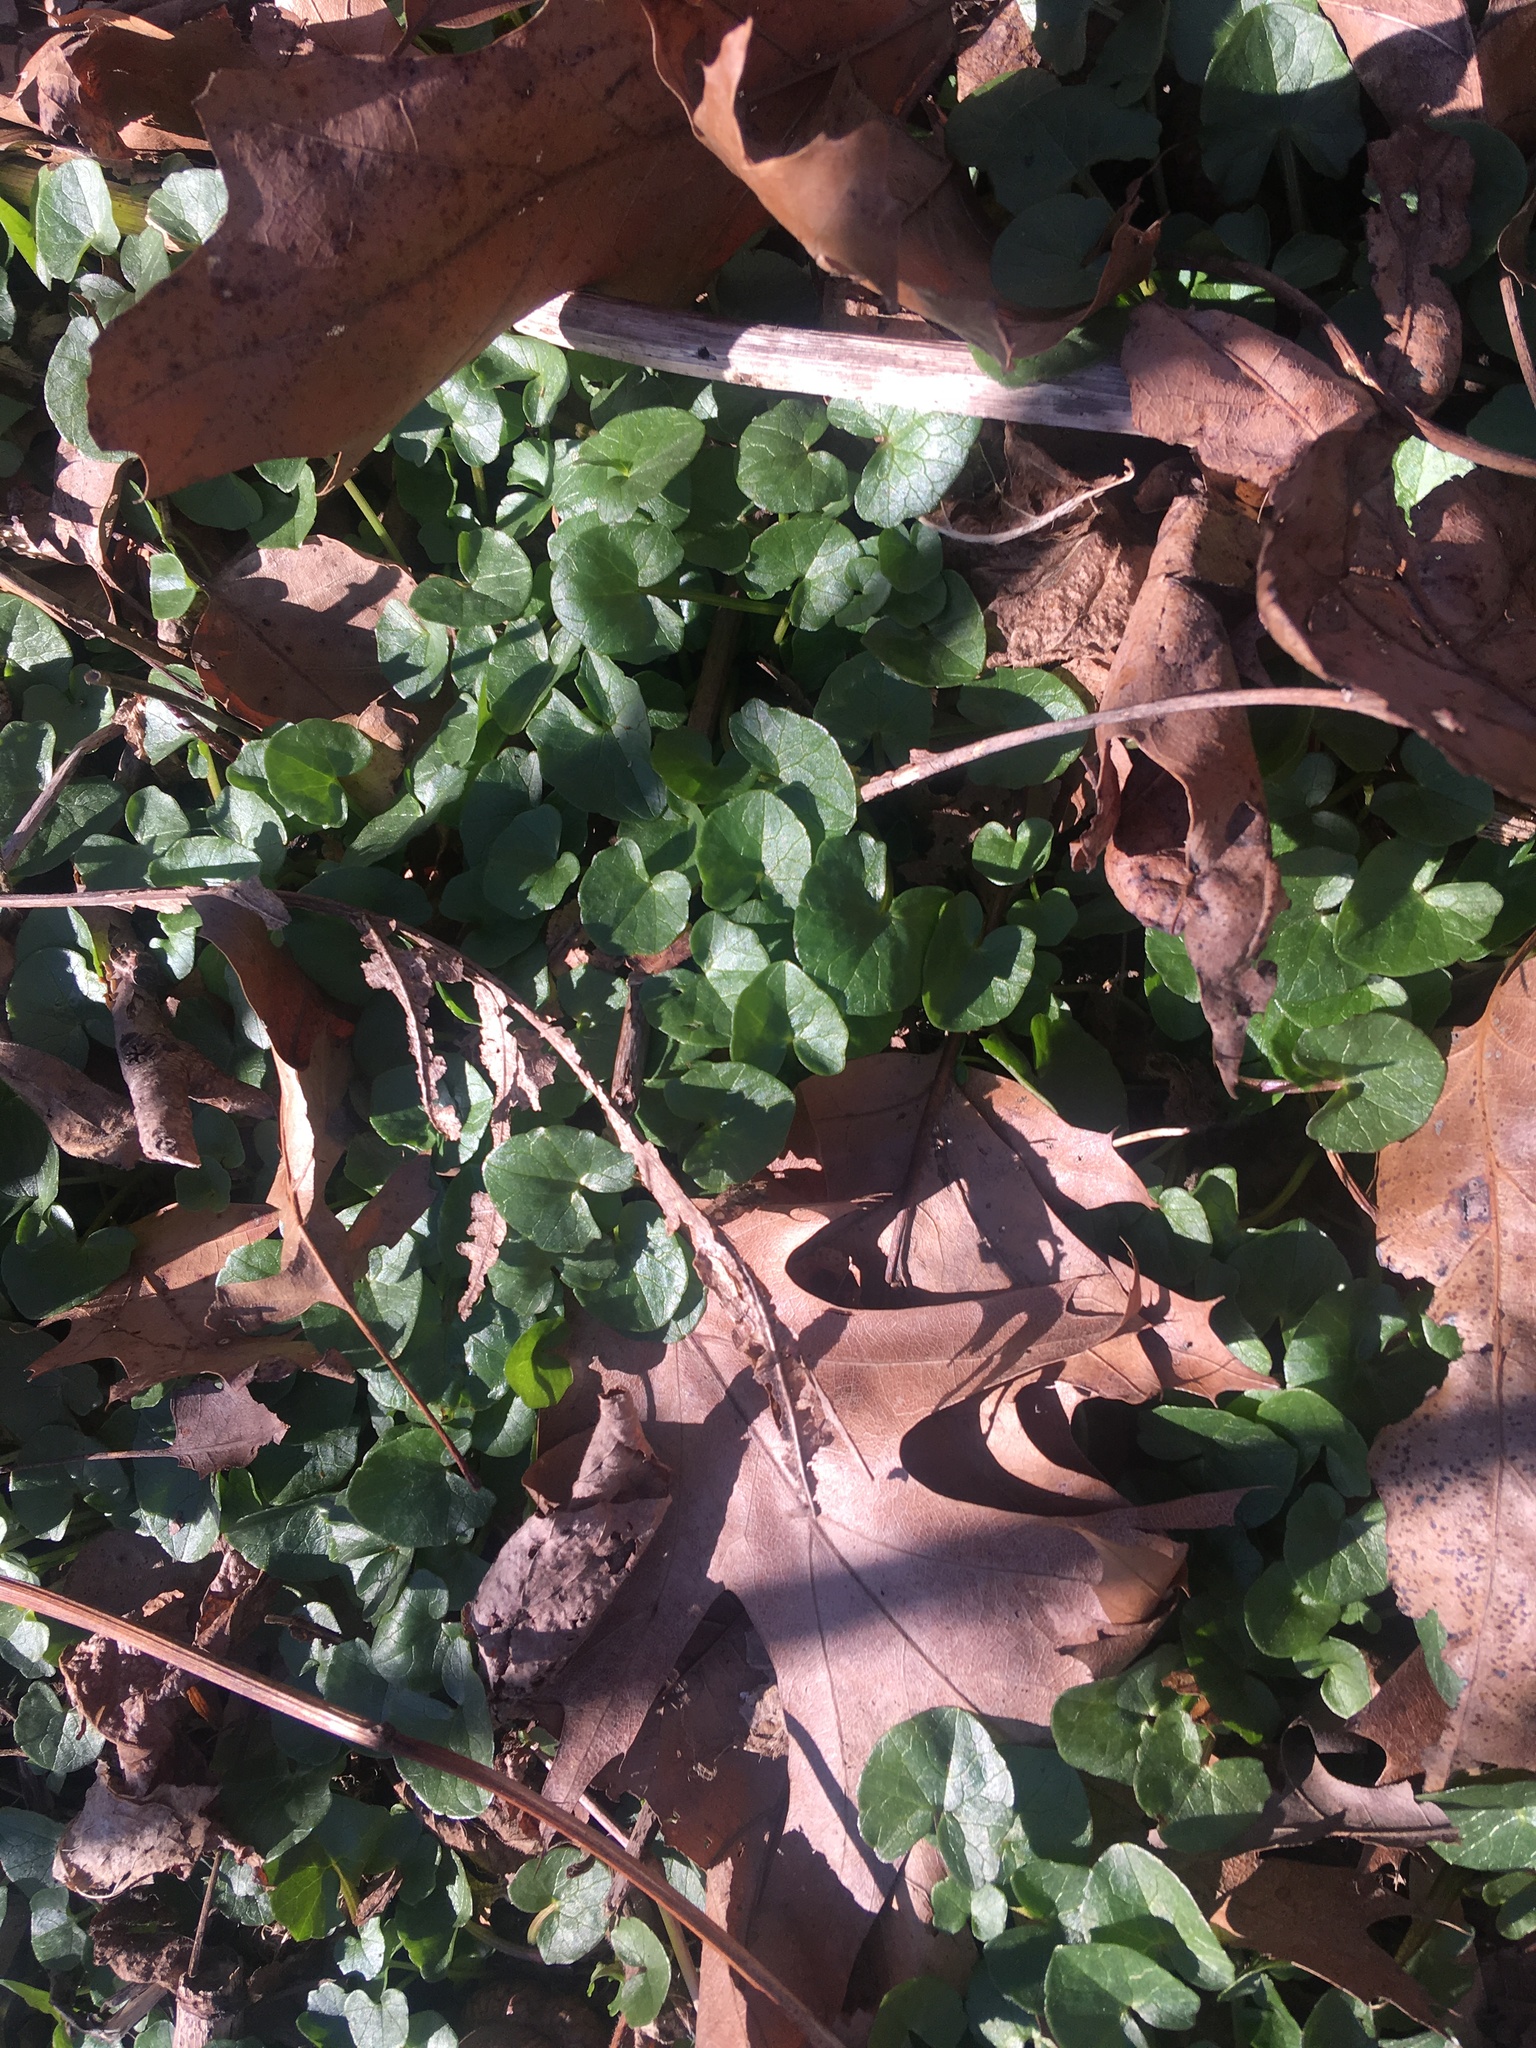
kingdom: Plantae
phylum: Tracheophyta
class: Magnoliopsida
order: Ranunculales
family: Ranunculaceae
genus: Ficaria
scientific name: Ficaria verna
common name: Lesser celandine
